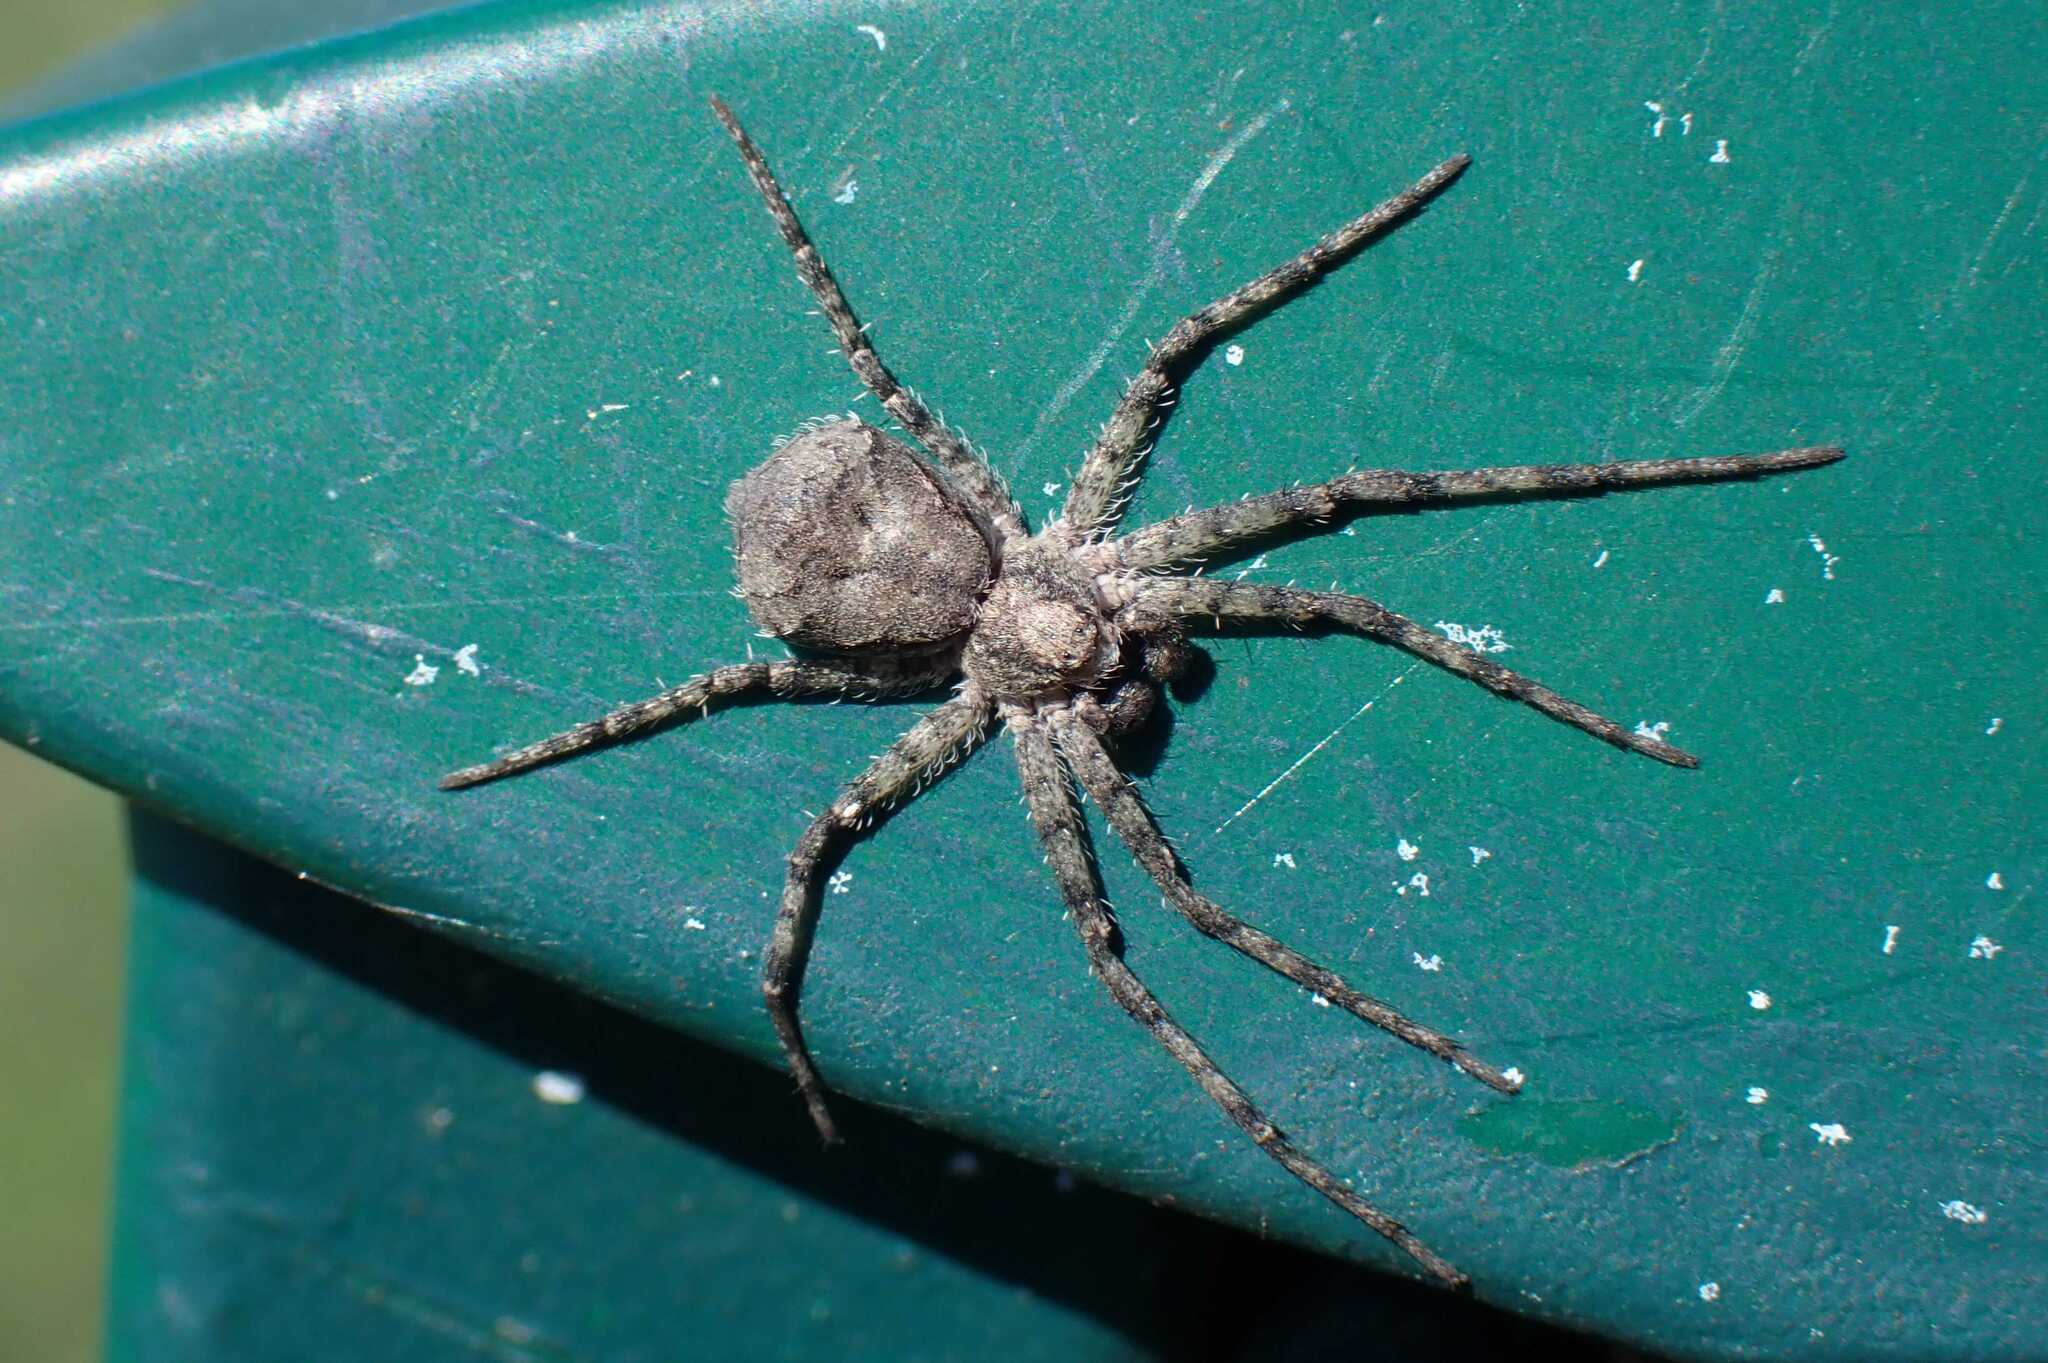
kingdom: Animalia
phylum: Arthropoda
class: Arachnida
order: Araneae
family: Philodromidae
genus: Philodromus
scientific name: Philodromus margaritatus
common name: Lichen running-spider
